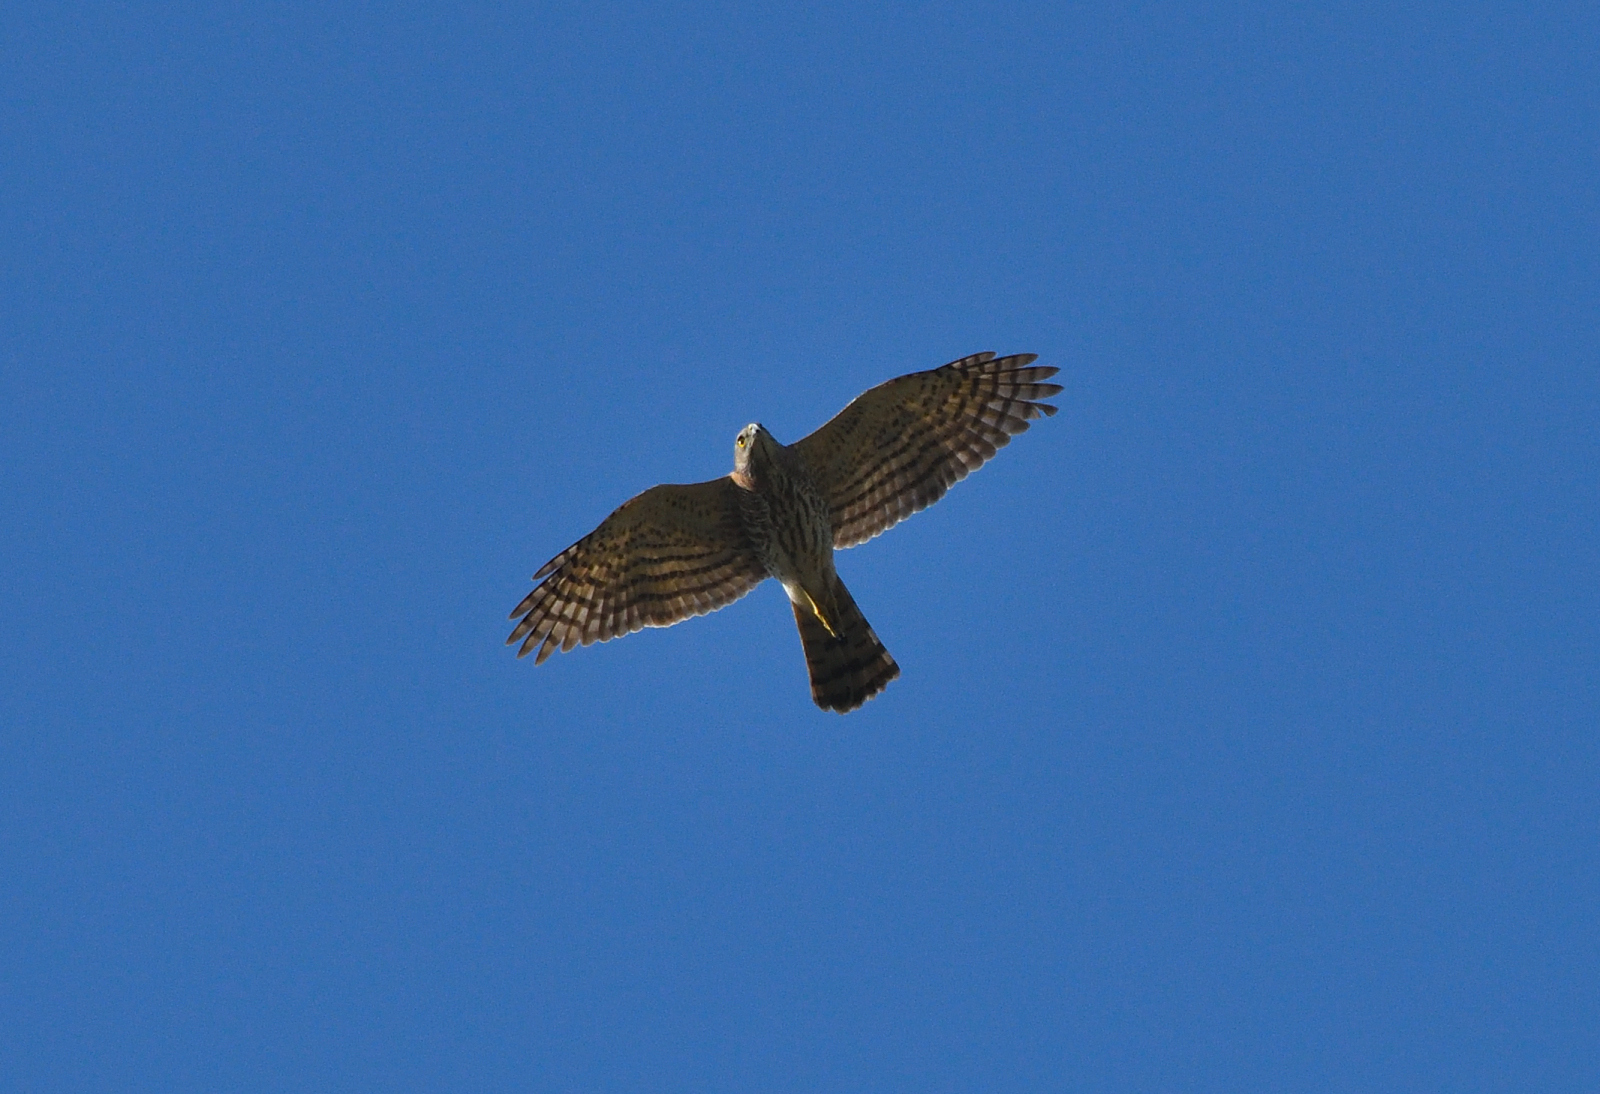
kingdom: Animalia
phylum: Chordata
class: Aves
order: Accipitriformes
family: Accipitridae
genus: Accipiter
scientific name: Accipiter badius
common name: Shikra
